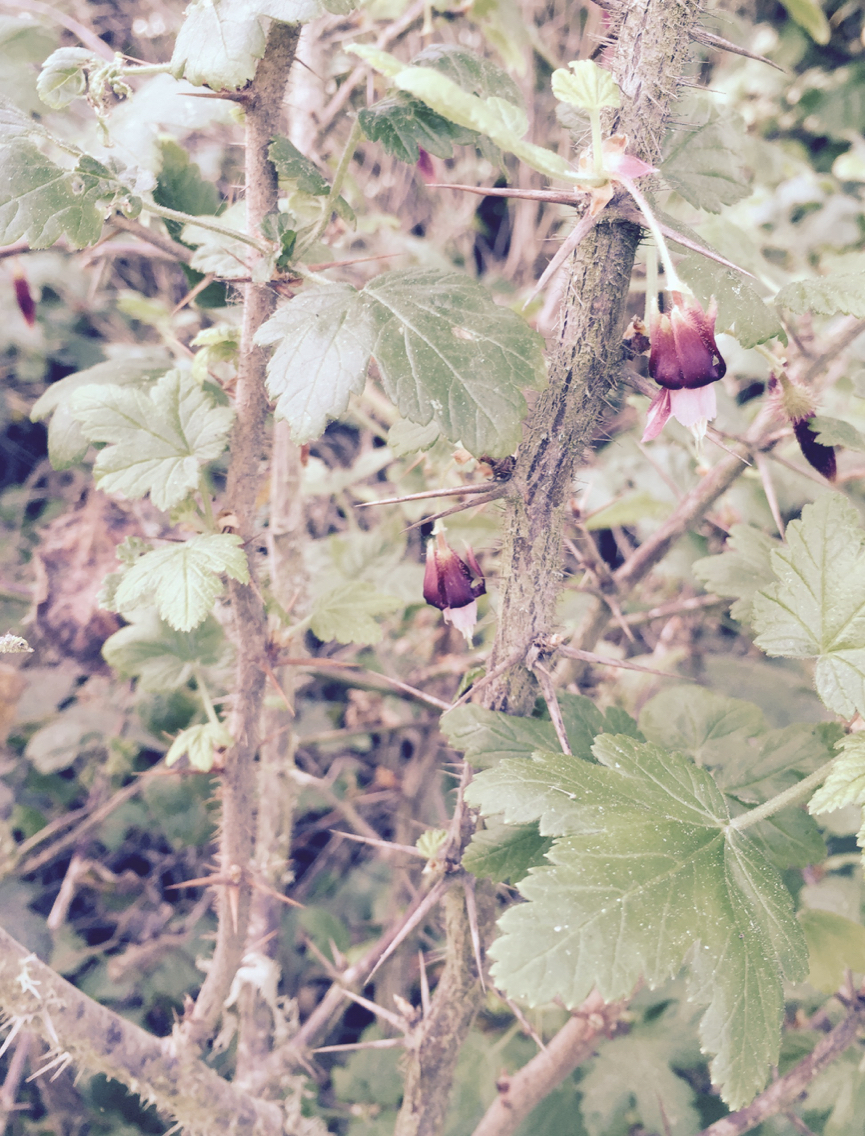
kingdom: Plantae
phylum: Tracheophyta
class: Magnoliopsida
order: Saxifragales
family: Grossulariaceae
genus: Ribes
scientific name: Ribes menziesii
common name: Canyon gooseberry
